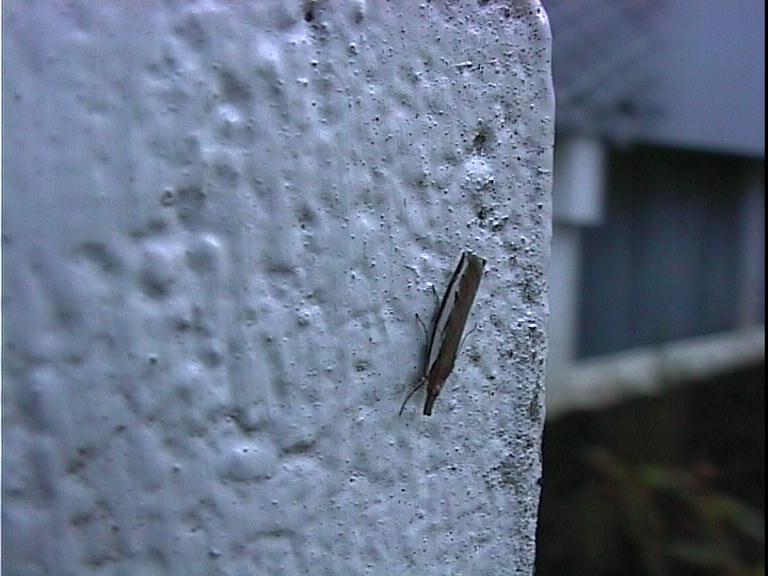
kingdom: Animalia
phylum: Arthropoda
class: Insecta
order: Lepidoptera
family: Crambidae
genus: Orocrambus
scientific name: Orocrambus flexuosellus
